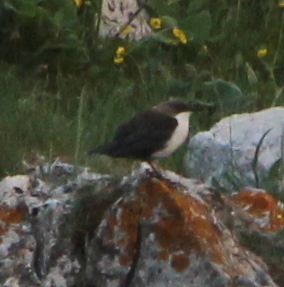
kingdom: Animalia
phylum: Chordata
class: Aves
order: Passeriformes
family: Cinclidae
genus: Cinclus
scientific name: Cinclus cinclus
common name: White-throated dipper
